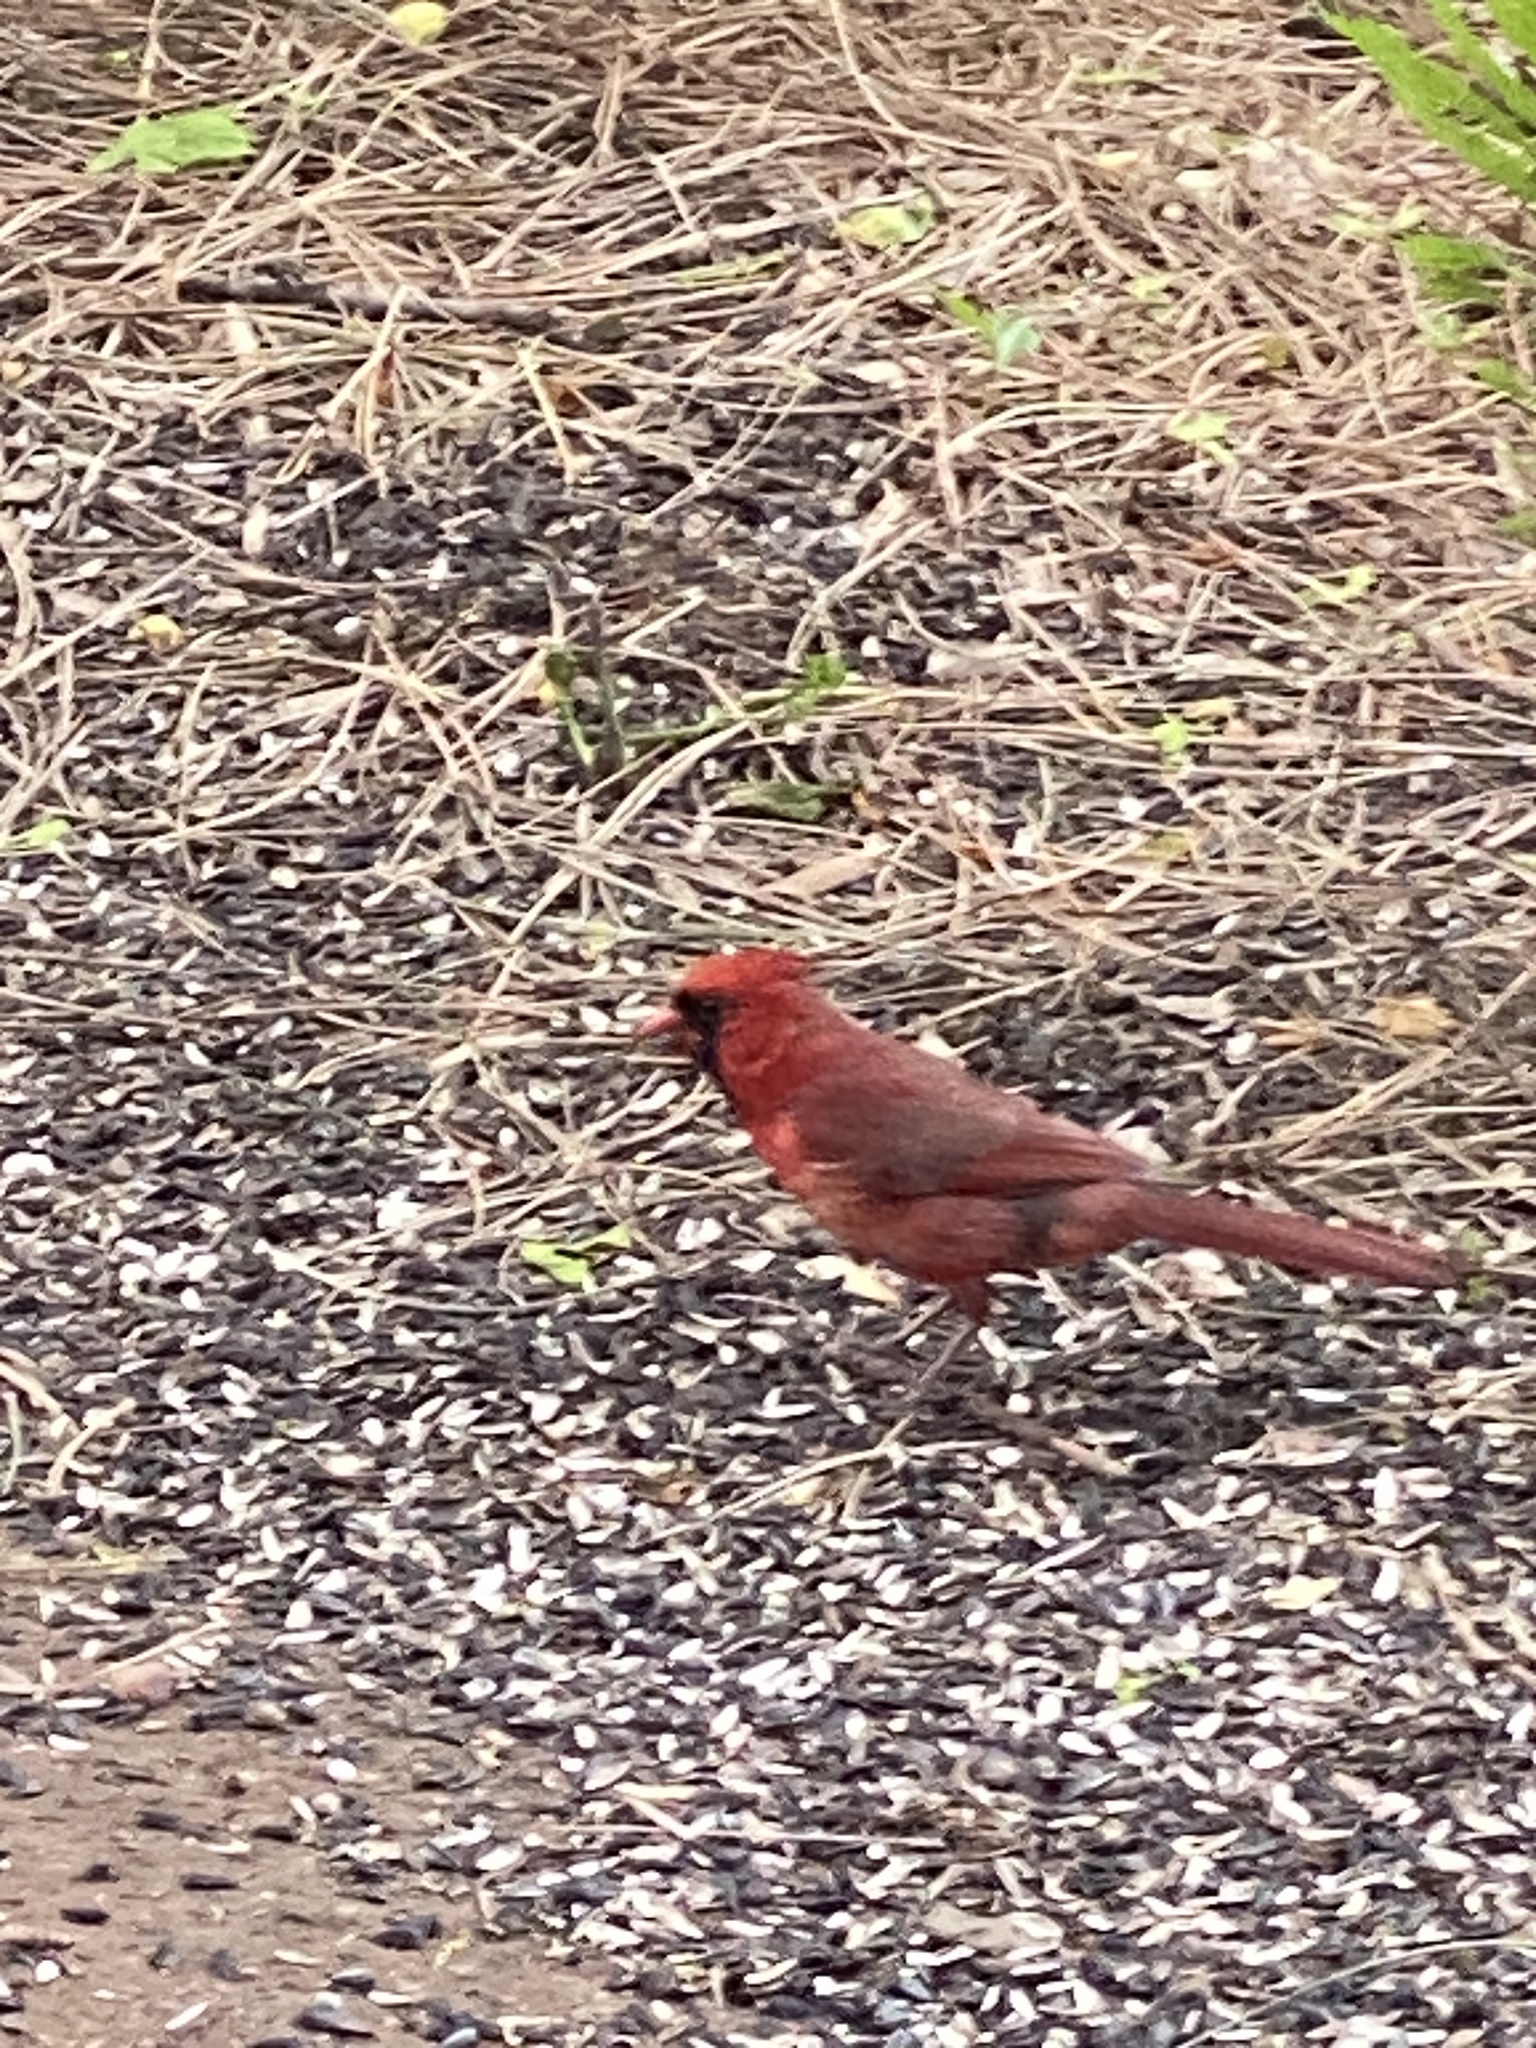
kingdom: Animalia
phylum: Chordata
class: Aves
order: Passeriformes
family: Cardinalidae
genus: Cardinalis
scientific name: Cardinalis cardinalis
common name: Northern cardinal
